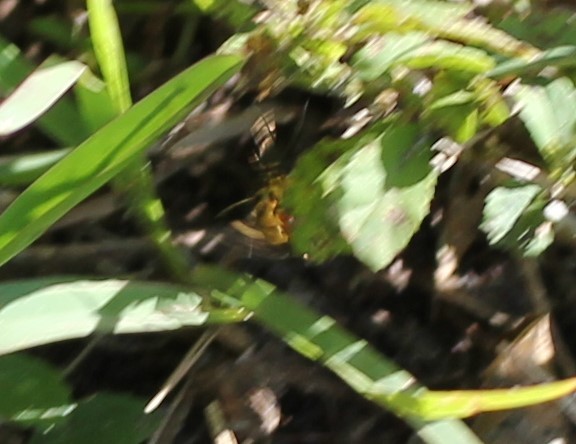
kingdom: Animalia
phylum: Arthropoda
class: Insecta
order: Lepidoptera
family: Crambidae
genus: Syngamia
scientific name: Syngamia florella
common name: Orange-spotted flower moth
